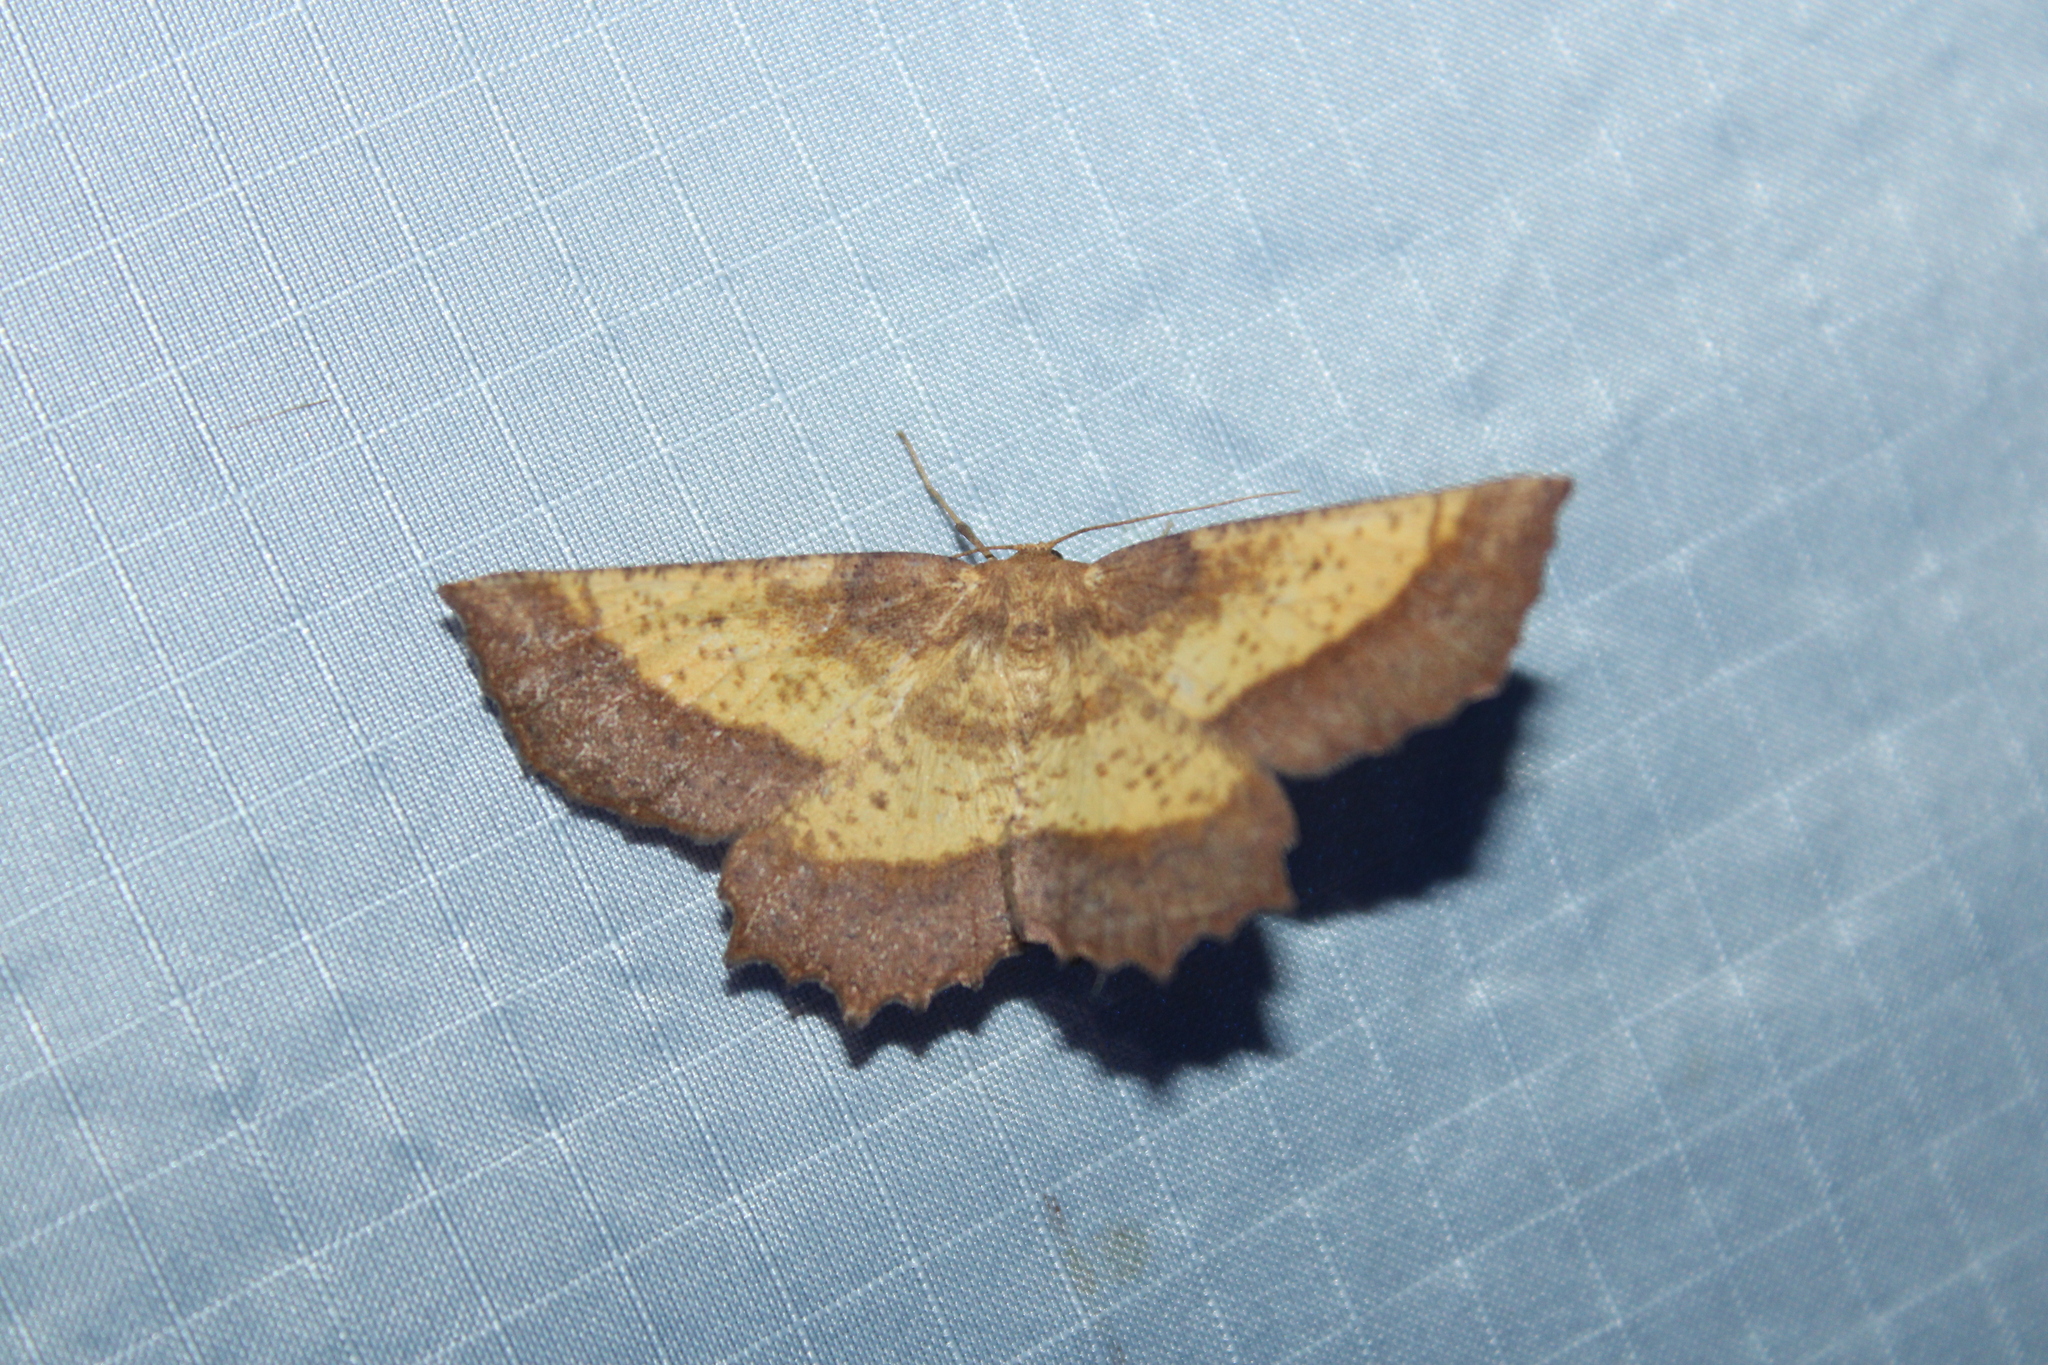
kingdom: Animalia
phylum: Arthropoda
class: Insecta
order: Lepidoptera
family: Geometridae
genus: Euchlaena
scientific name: Euchlaena serrata
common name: Saw wing
